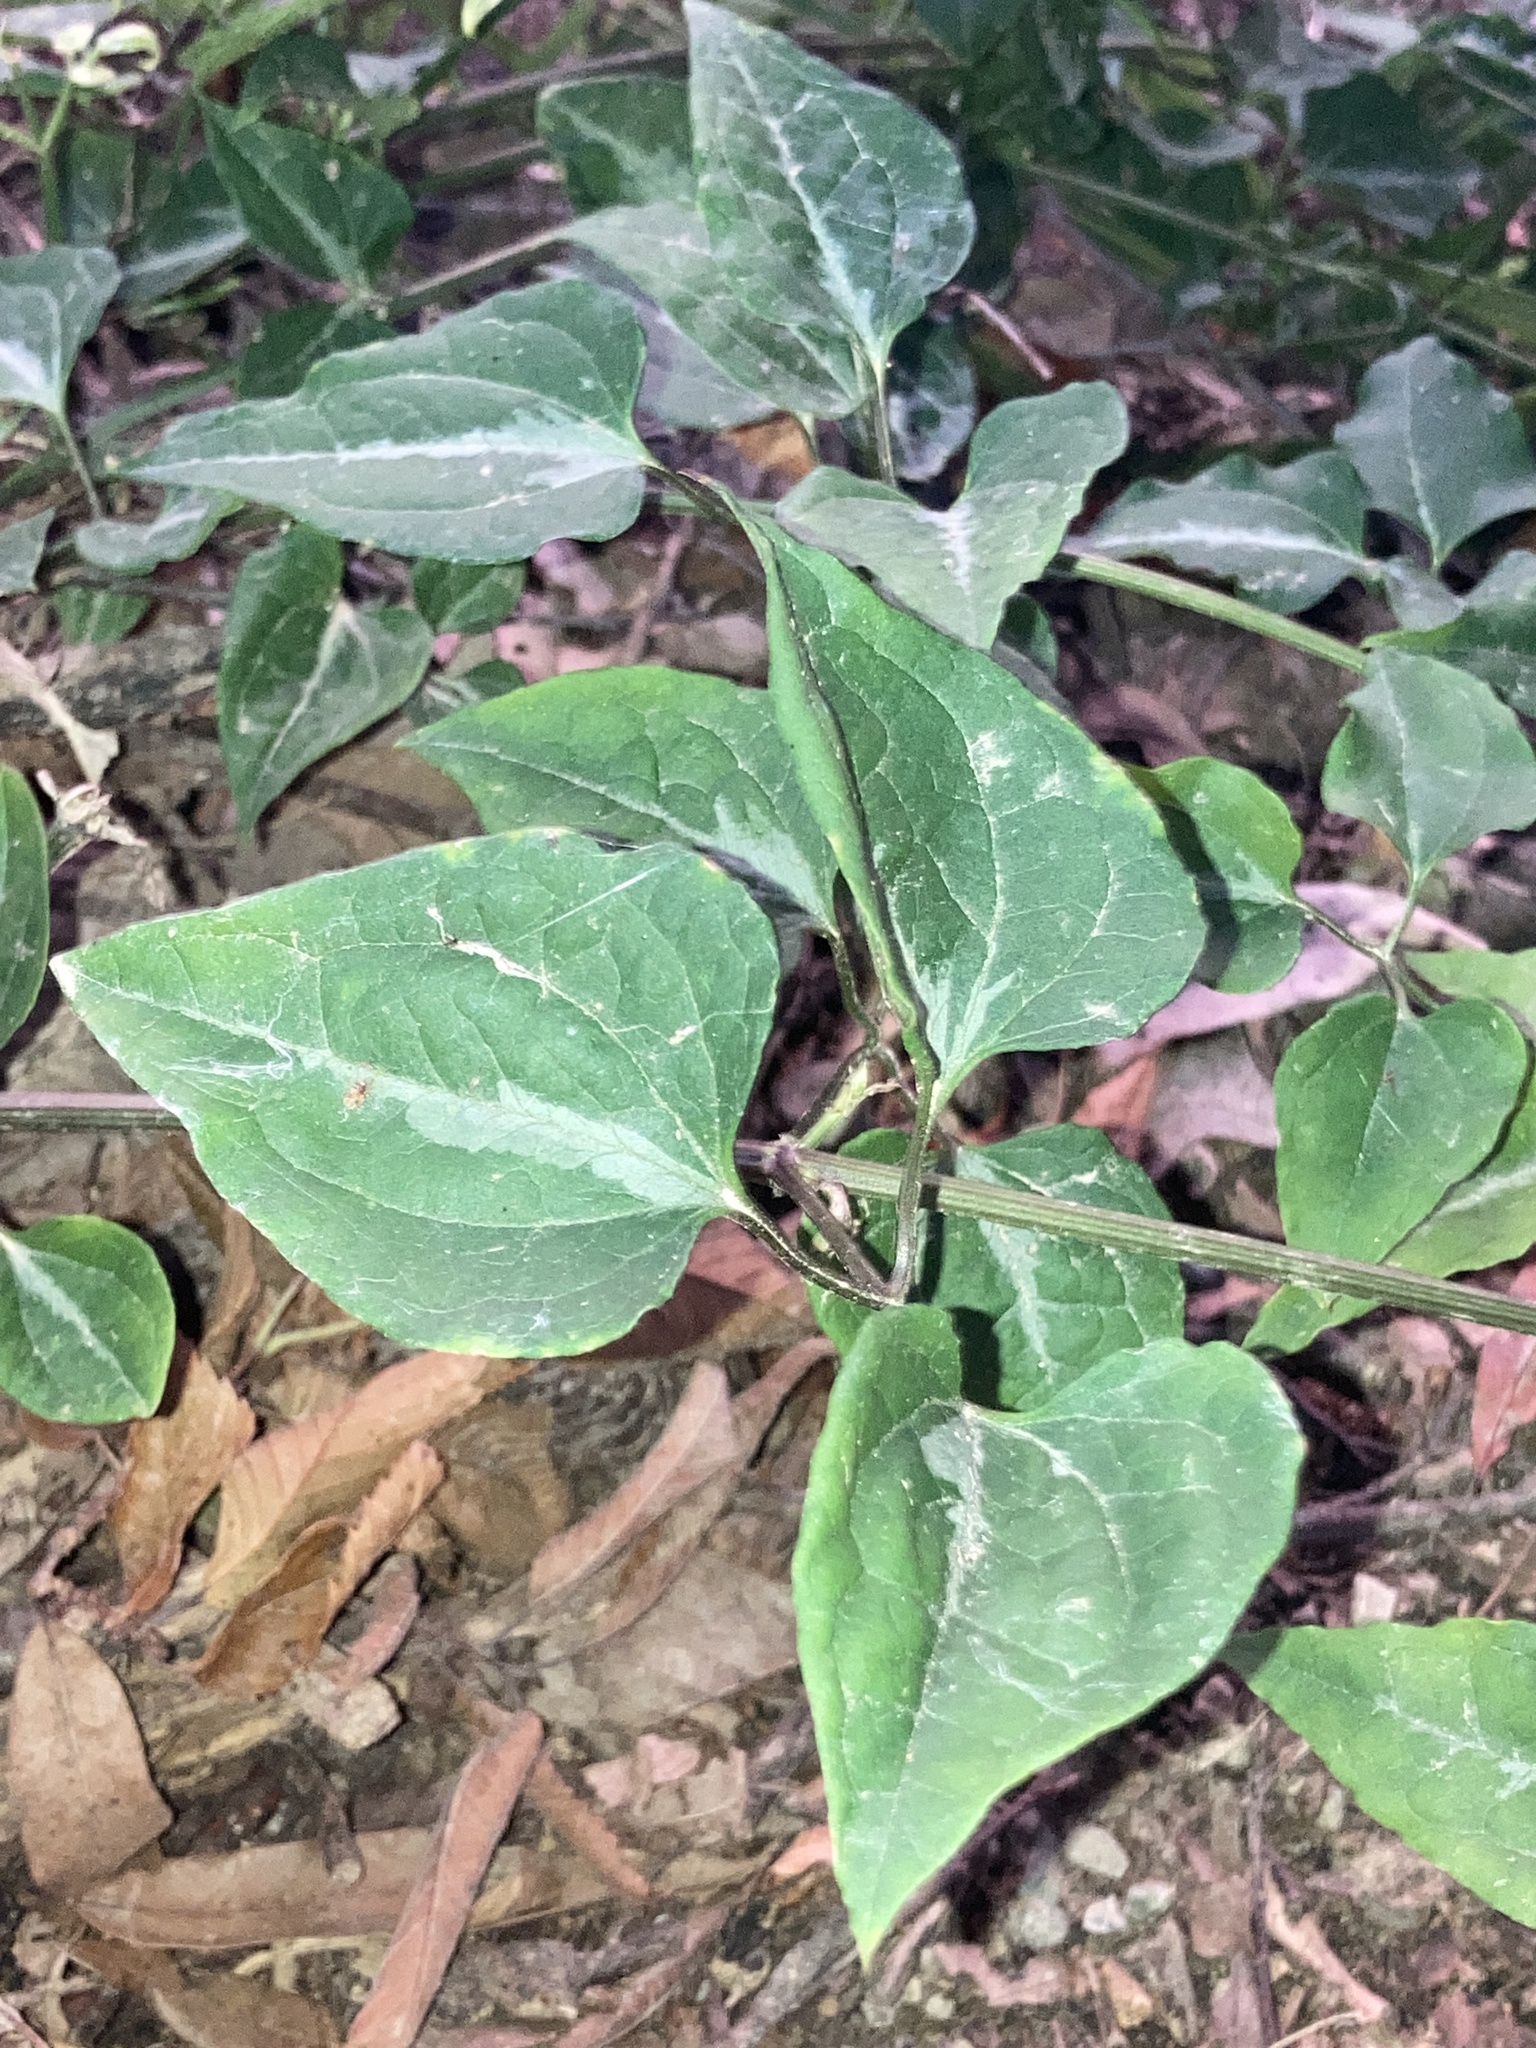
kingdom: Plantae
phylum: Tracheophyta
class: Magnoliopsida
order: Ranunculales
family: Ranunculaceae
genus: Clematis
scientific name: Clematis terniflora
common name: Sweet autumn clematis
